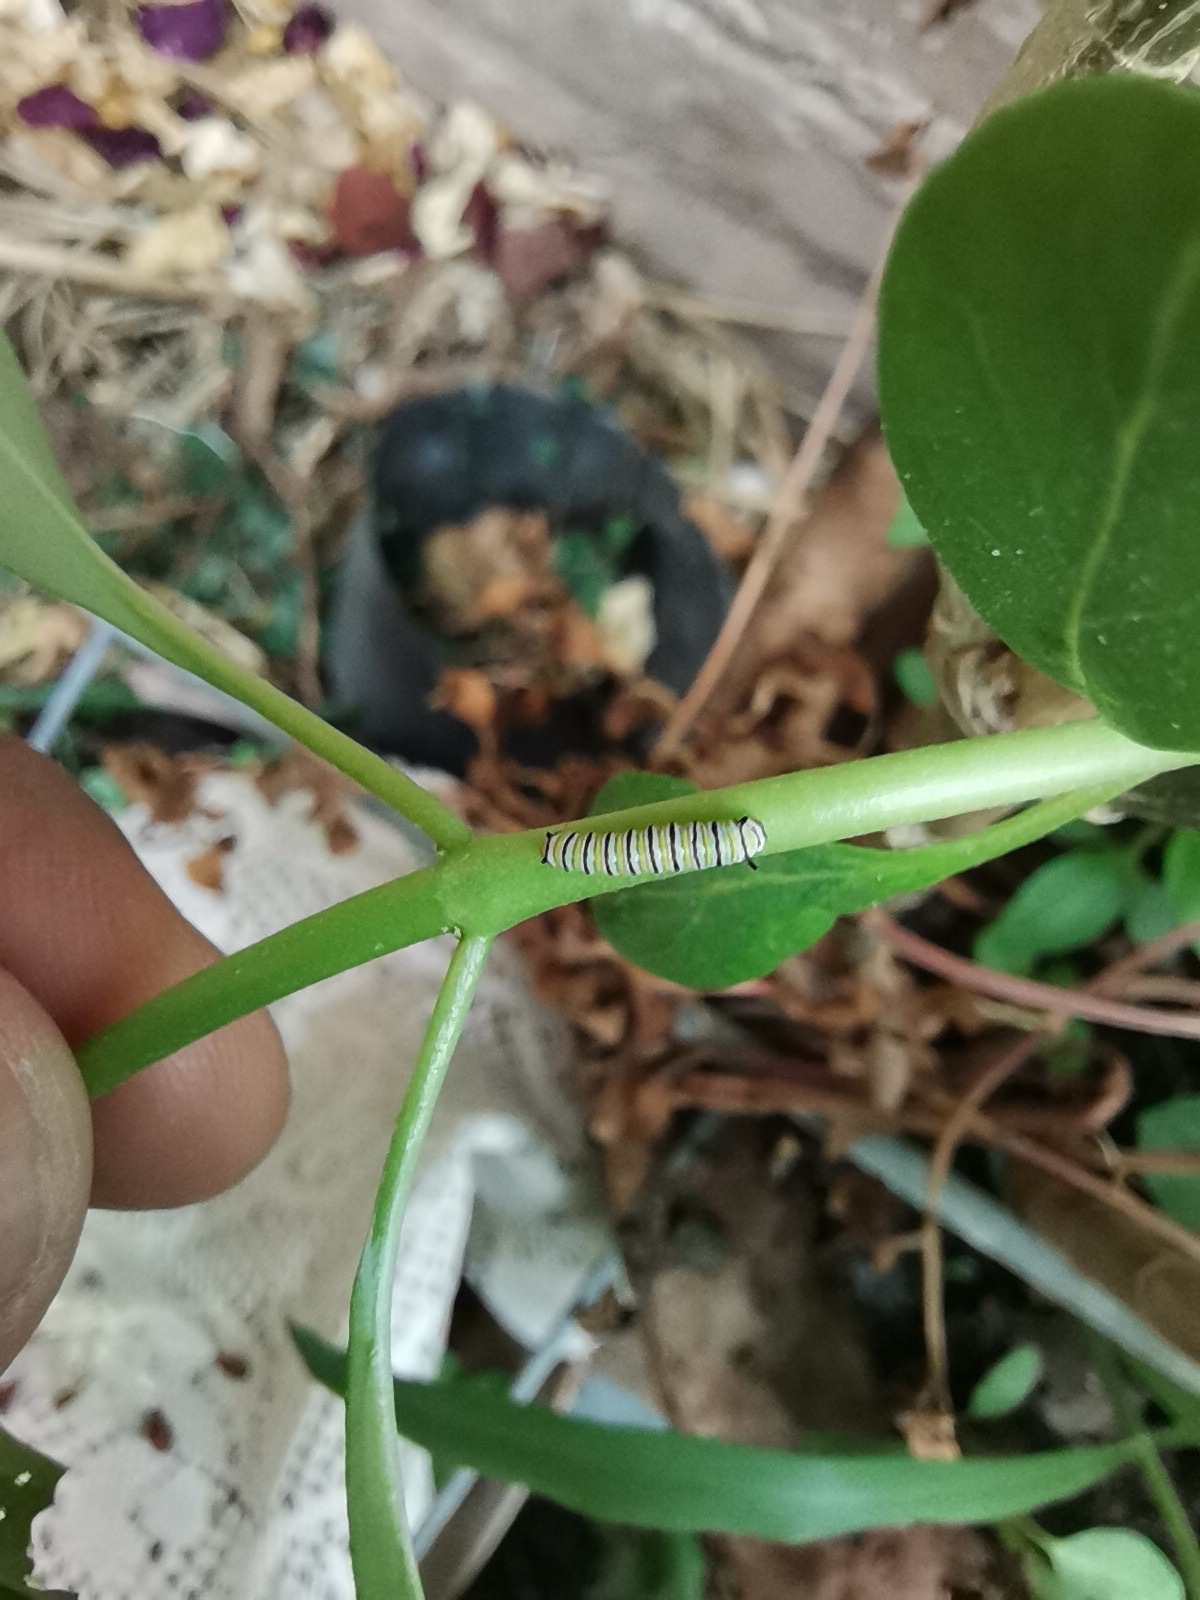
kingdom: Animalia
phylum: Arthropoda
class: Insecta
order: Lepidoptera
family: Nymphalidae
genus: Danaus
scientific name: Danaus plexippus
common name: Monarch
